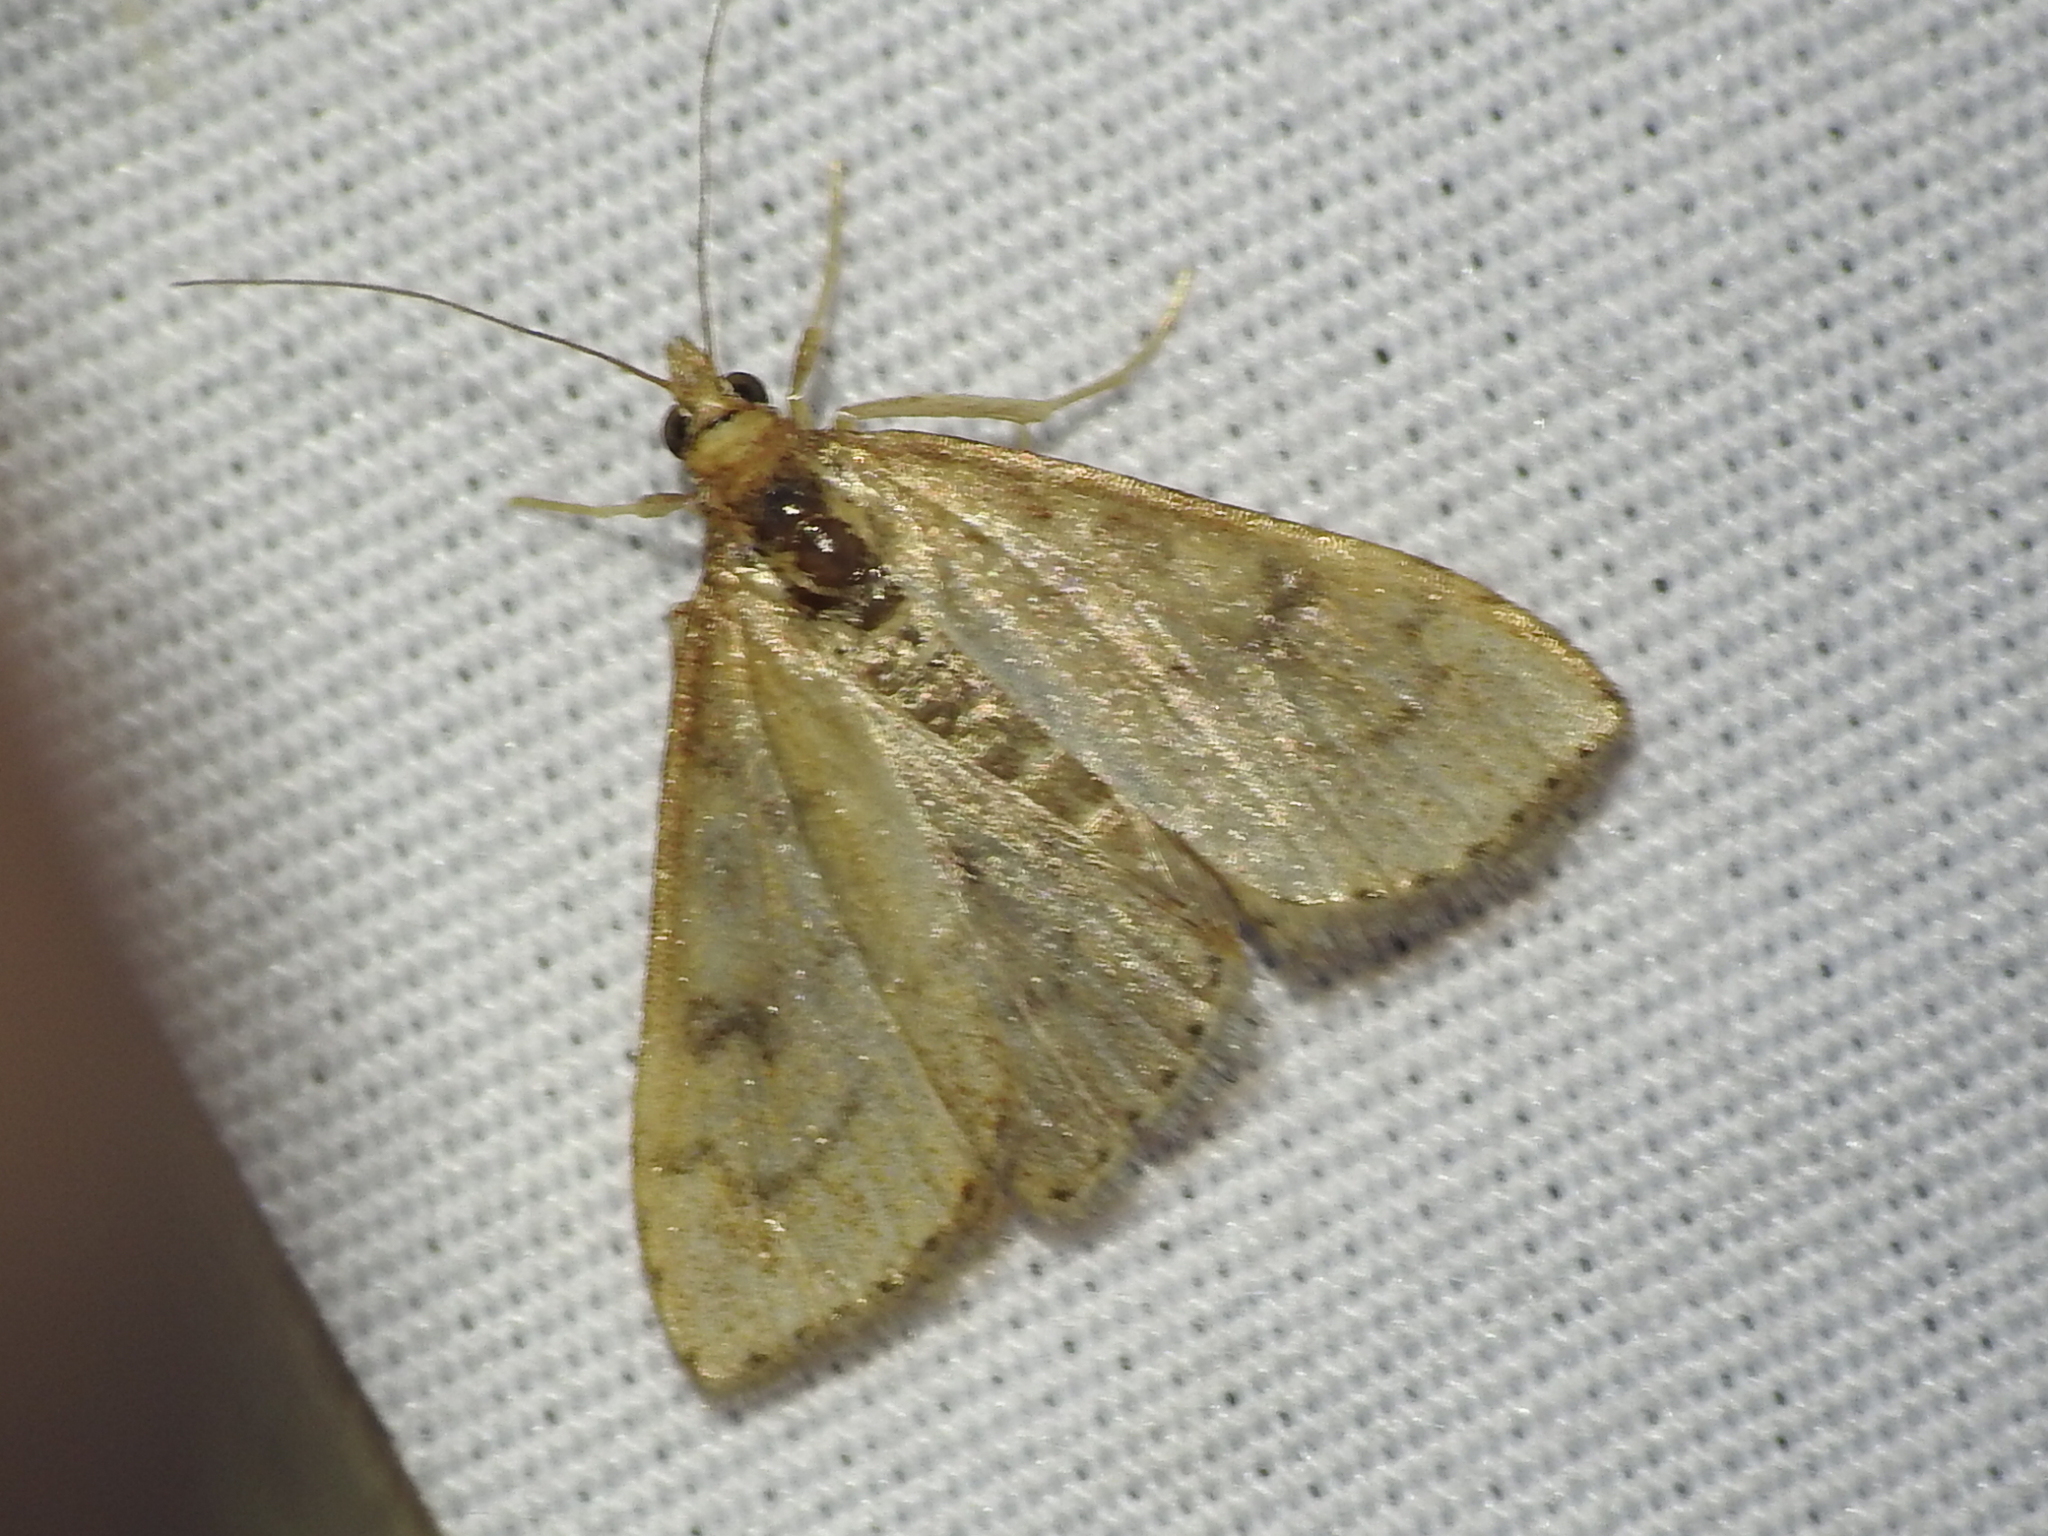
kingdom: Animalia
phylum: Arthropoda
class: Insecta
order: Lepidoptera
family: Crambidae
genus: Udea
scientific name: Udea rubigalis
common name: Celery leaftier moth
